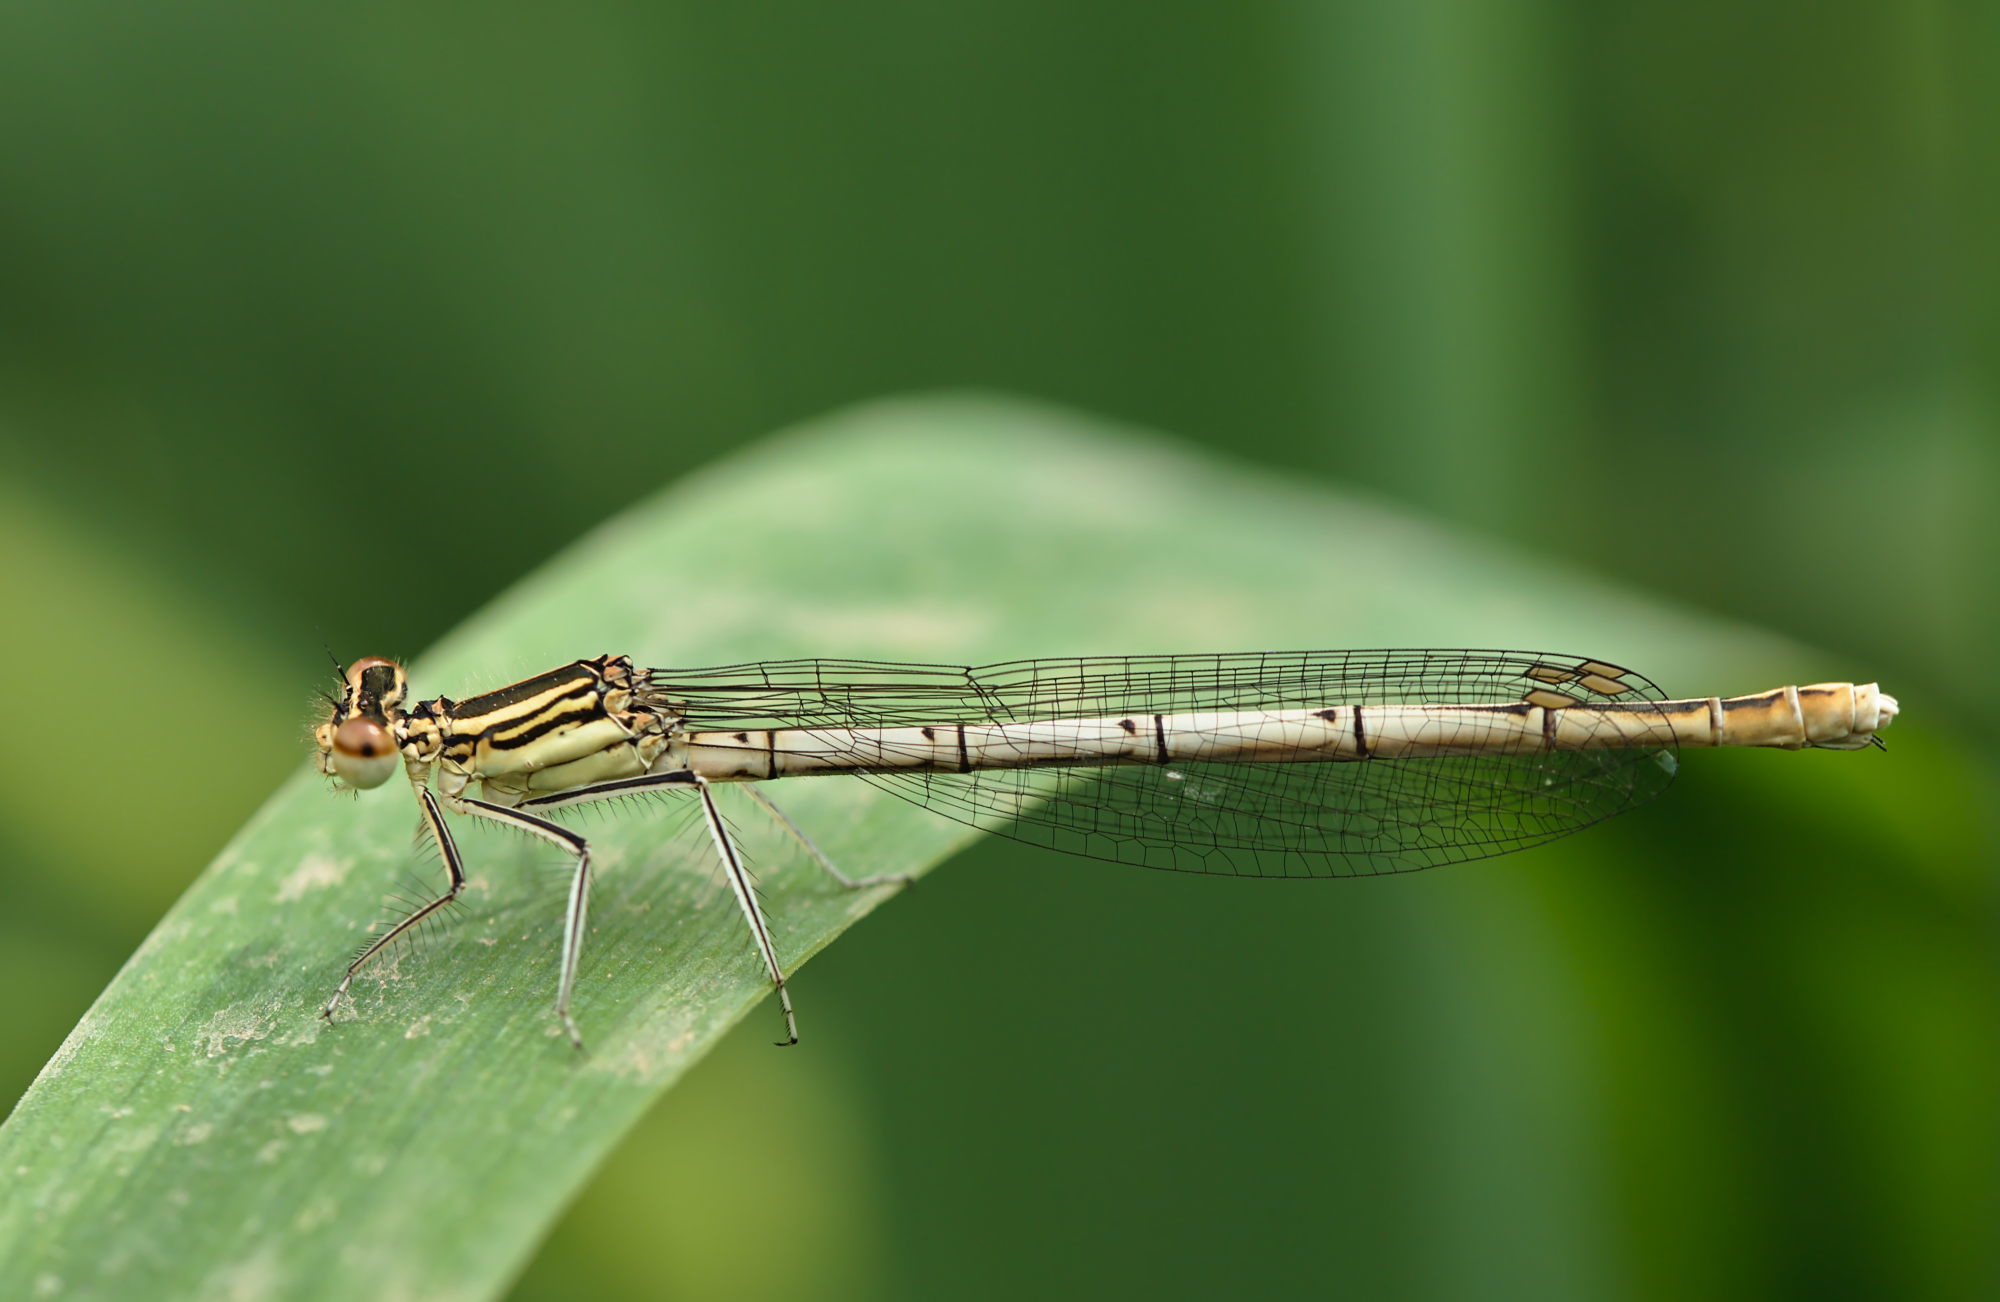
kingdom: Animalia
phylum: Arthropoda
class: Insecta
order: Odonata
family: Platycnemididae
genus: Platycnemis
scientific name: Platycnemis pennipes
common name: White-legged damselfly
